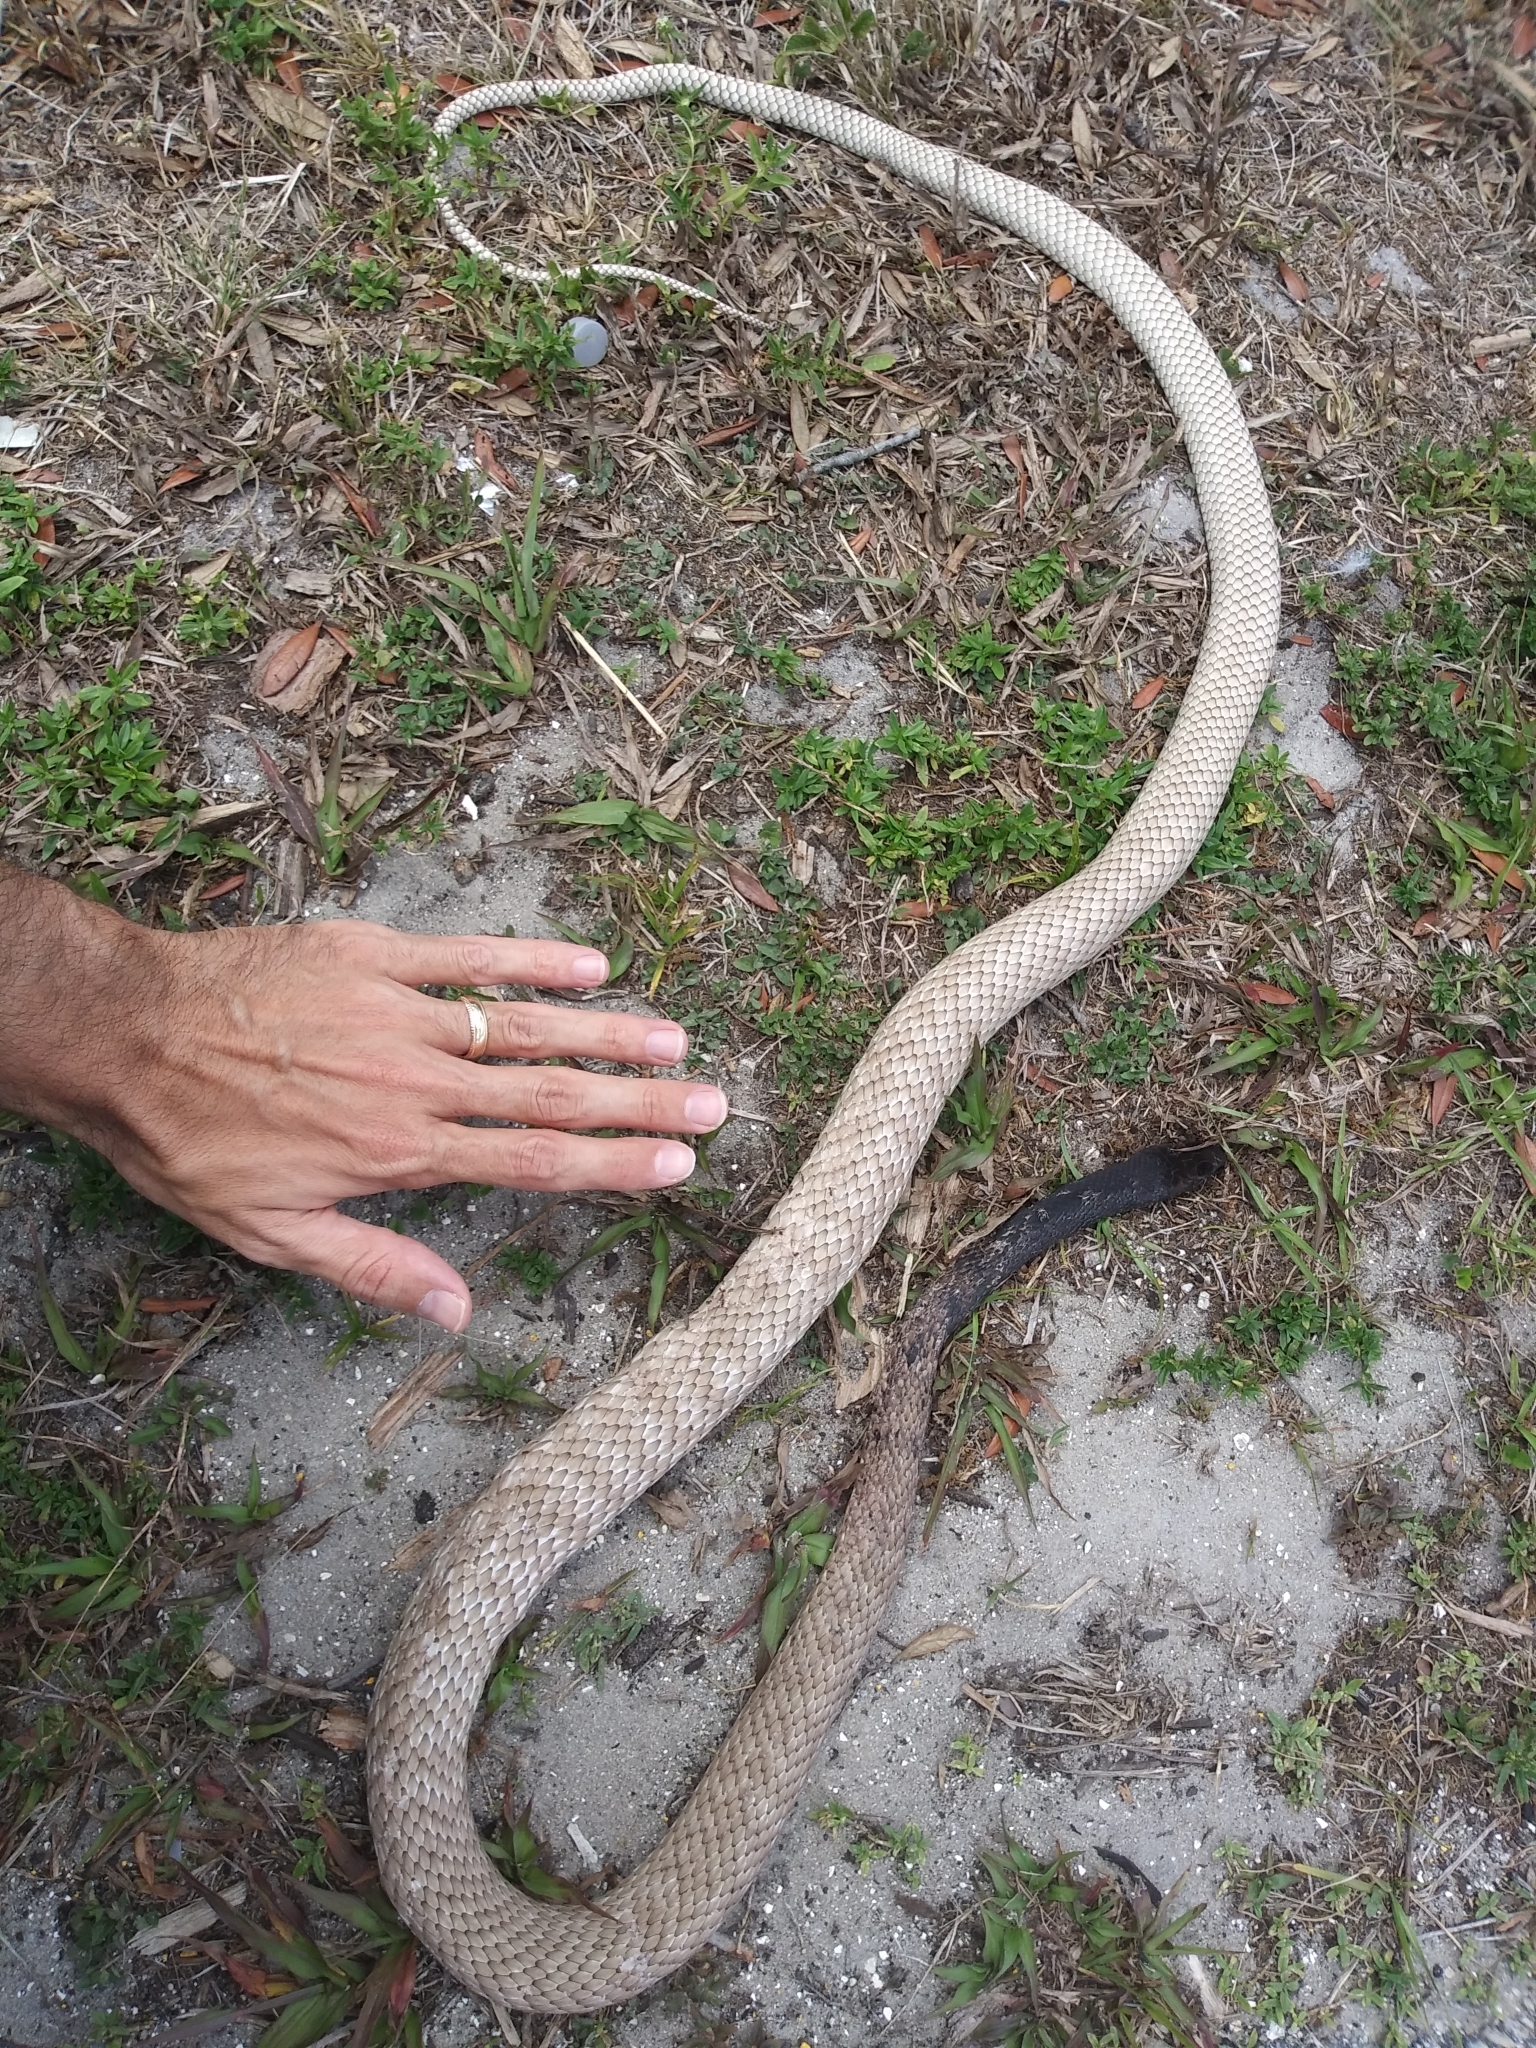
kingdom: Animalia
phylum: Chordata
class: Squamata
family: Colubridae
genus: Masticophis
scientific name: Masticophis flagellum
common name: Coachwhip
